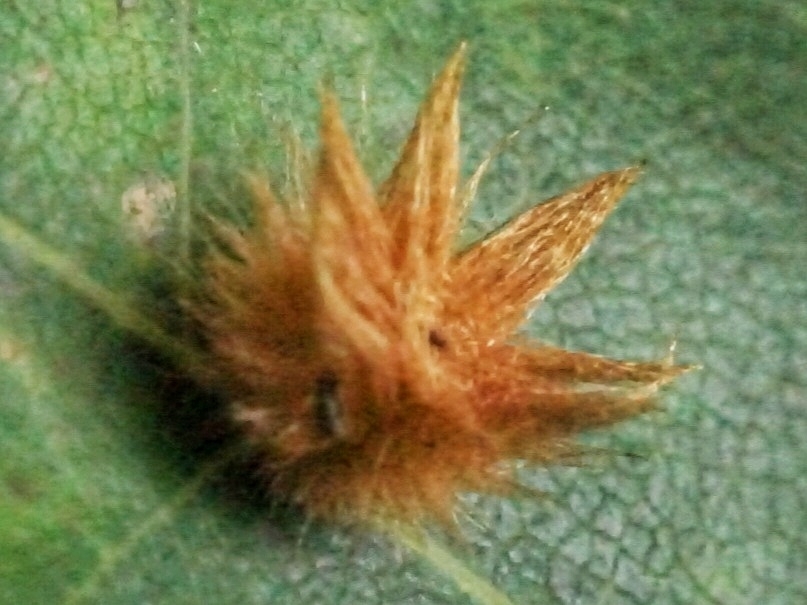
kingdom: Animalia
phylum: Arthropoda
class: Insecta
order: Hymenoptera
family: Cynipidae
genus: Callirhytis
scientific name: Callirhytis
